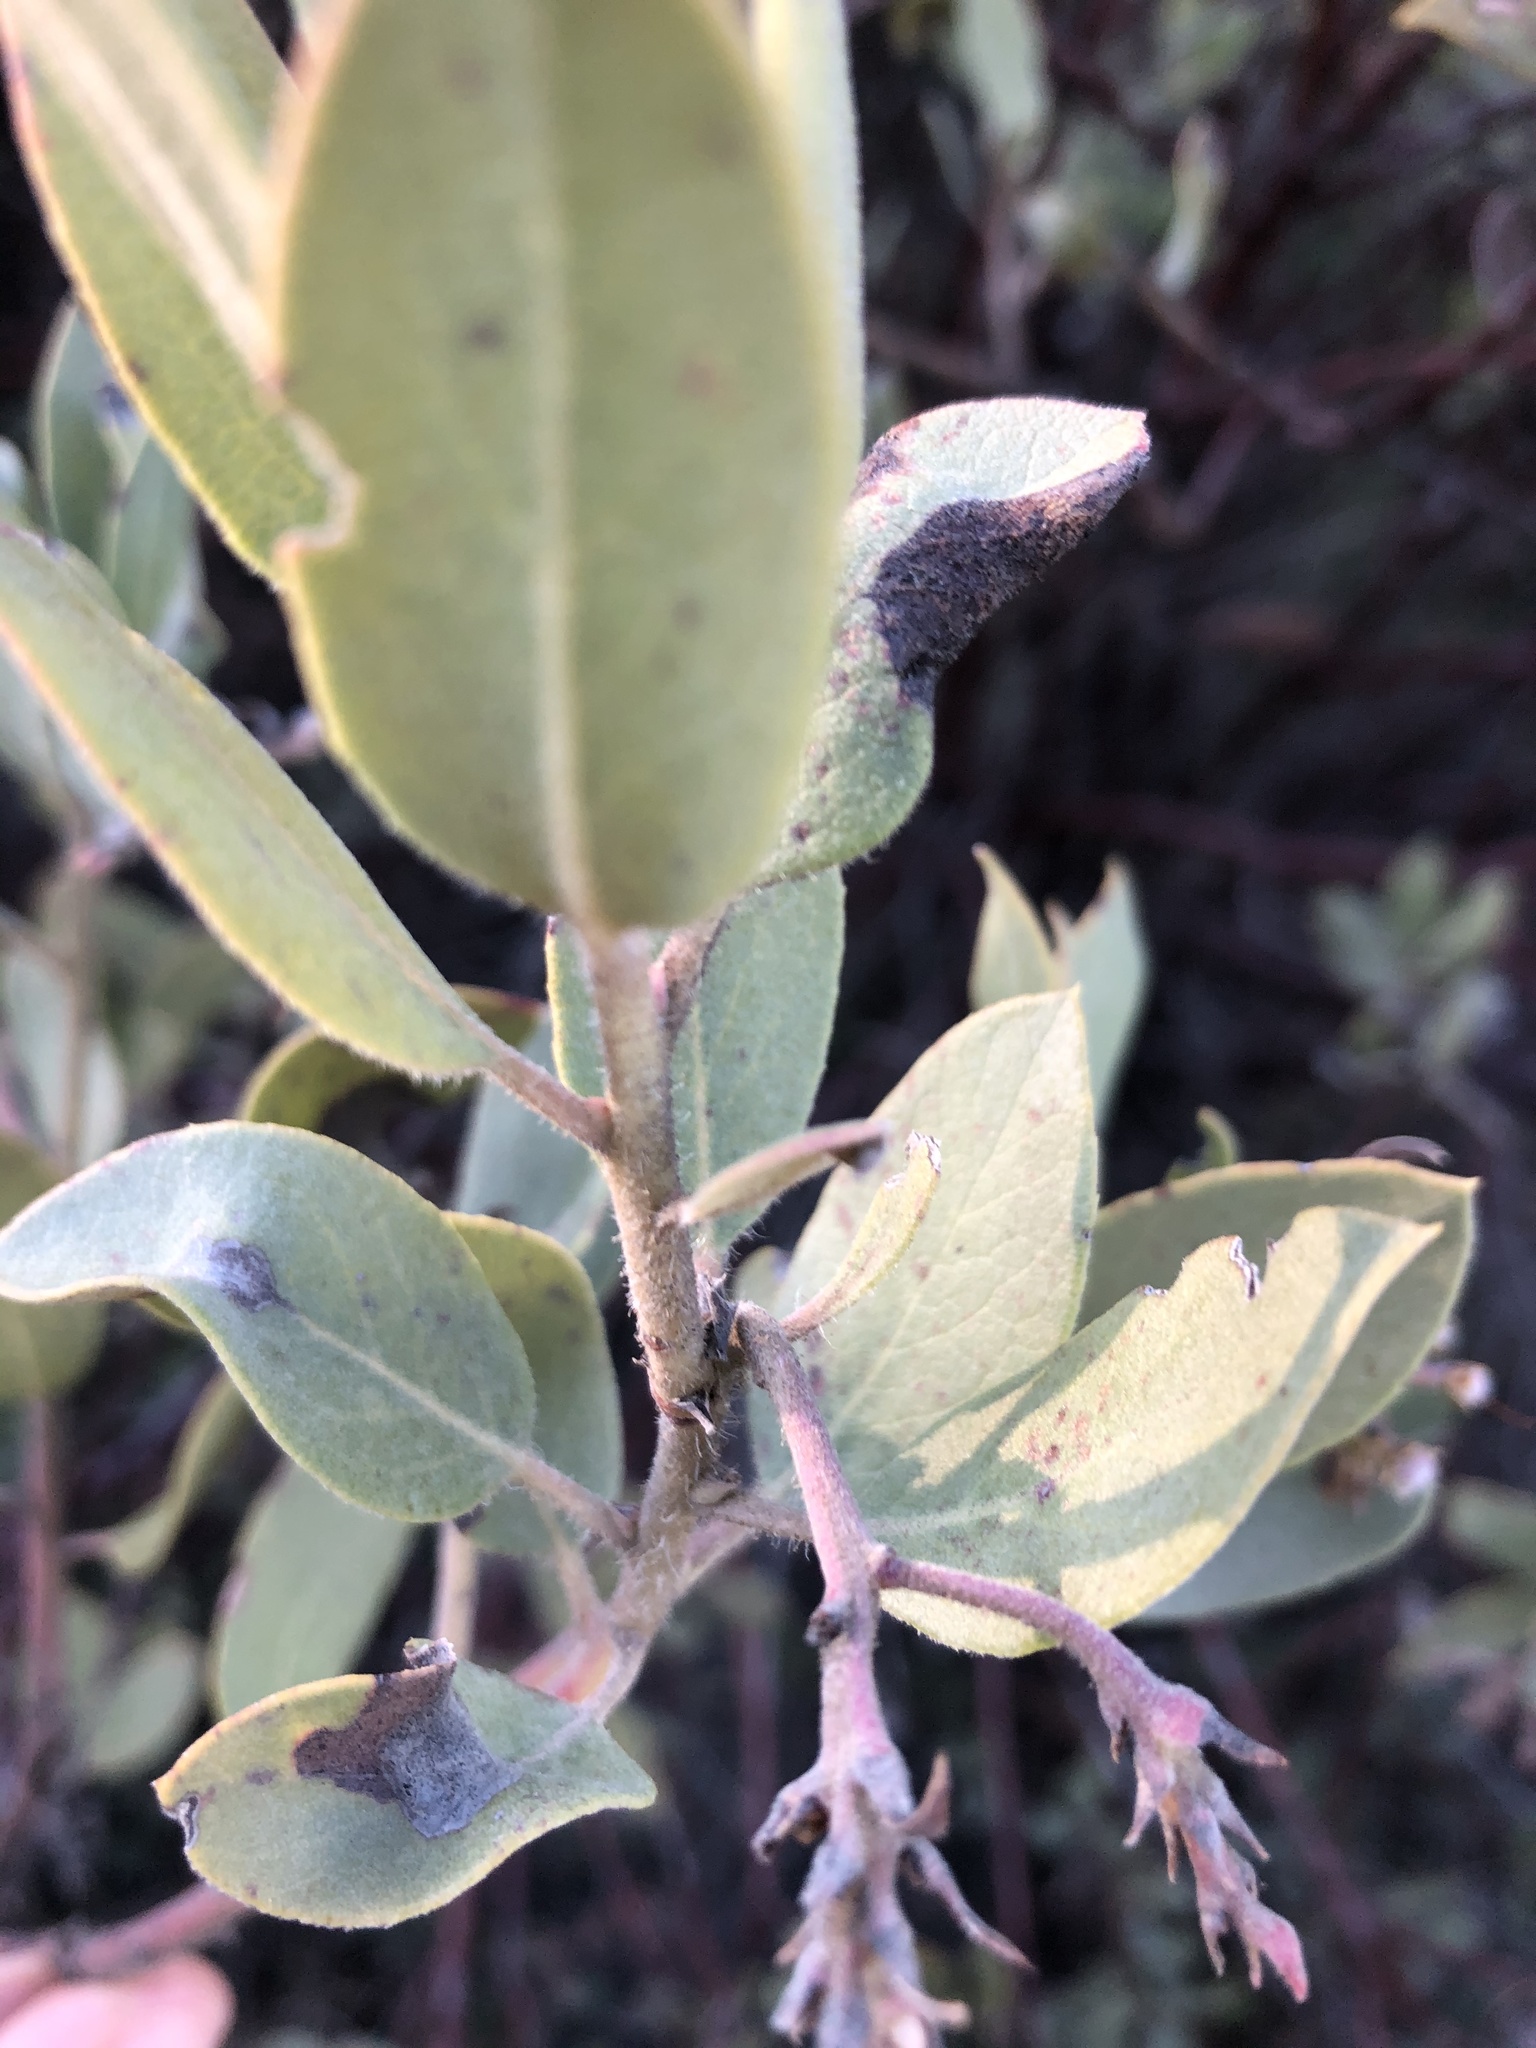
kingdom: Plantae
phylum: Tracheophyta
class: Magnoliopsida
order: Ericales
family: Ericaceae
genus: Arctostaphylos
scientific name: Arctostaphylos glandulosa
